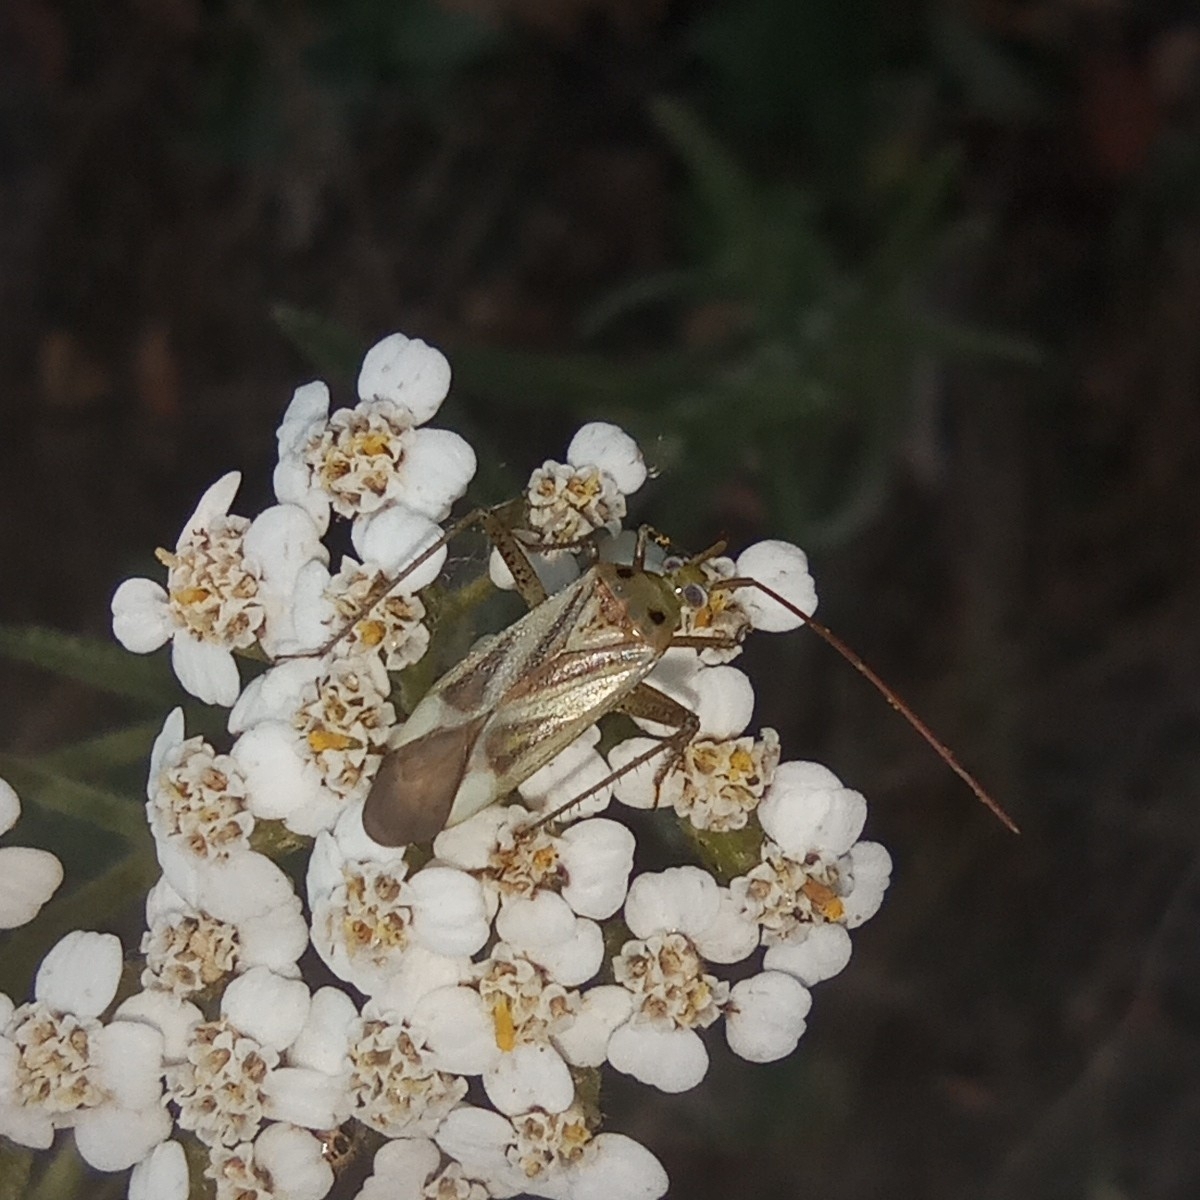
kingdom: Animalia
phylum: Arthropoda
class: Insecta
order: Hemiptera
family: Miridae
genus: Adelphocoris
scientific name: Adelphocoris lineolatus
